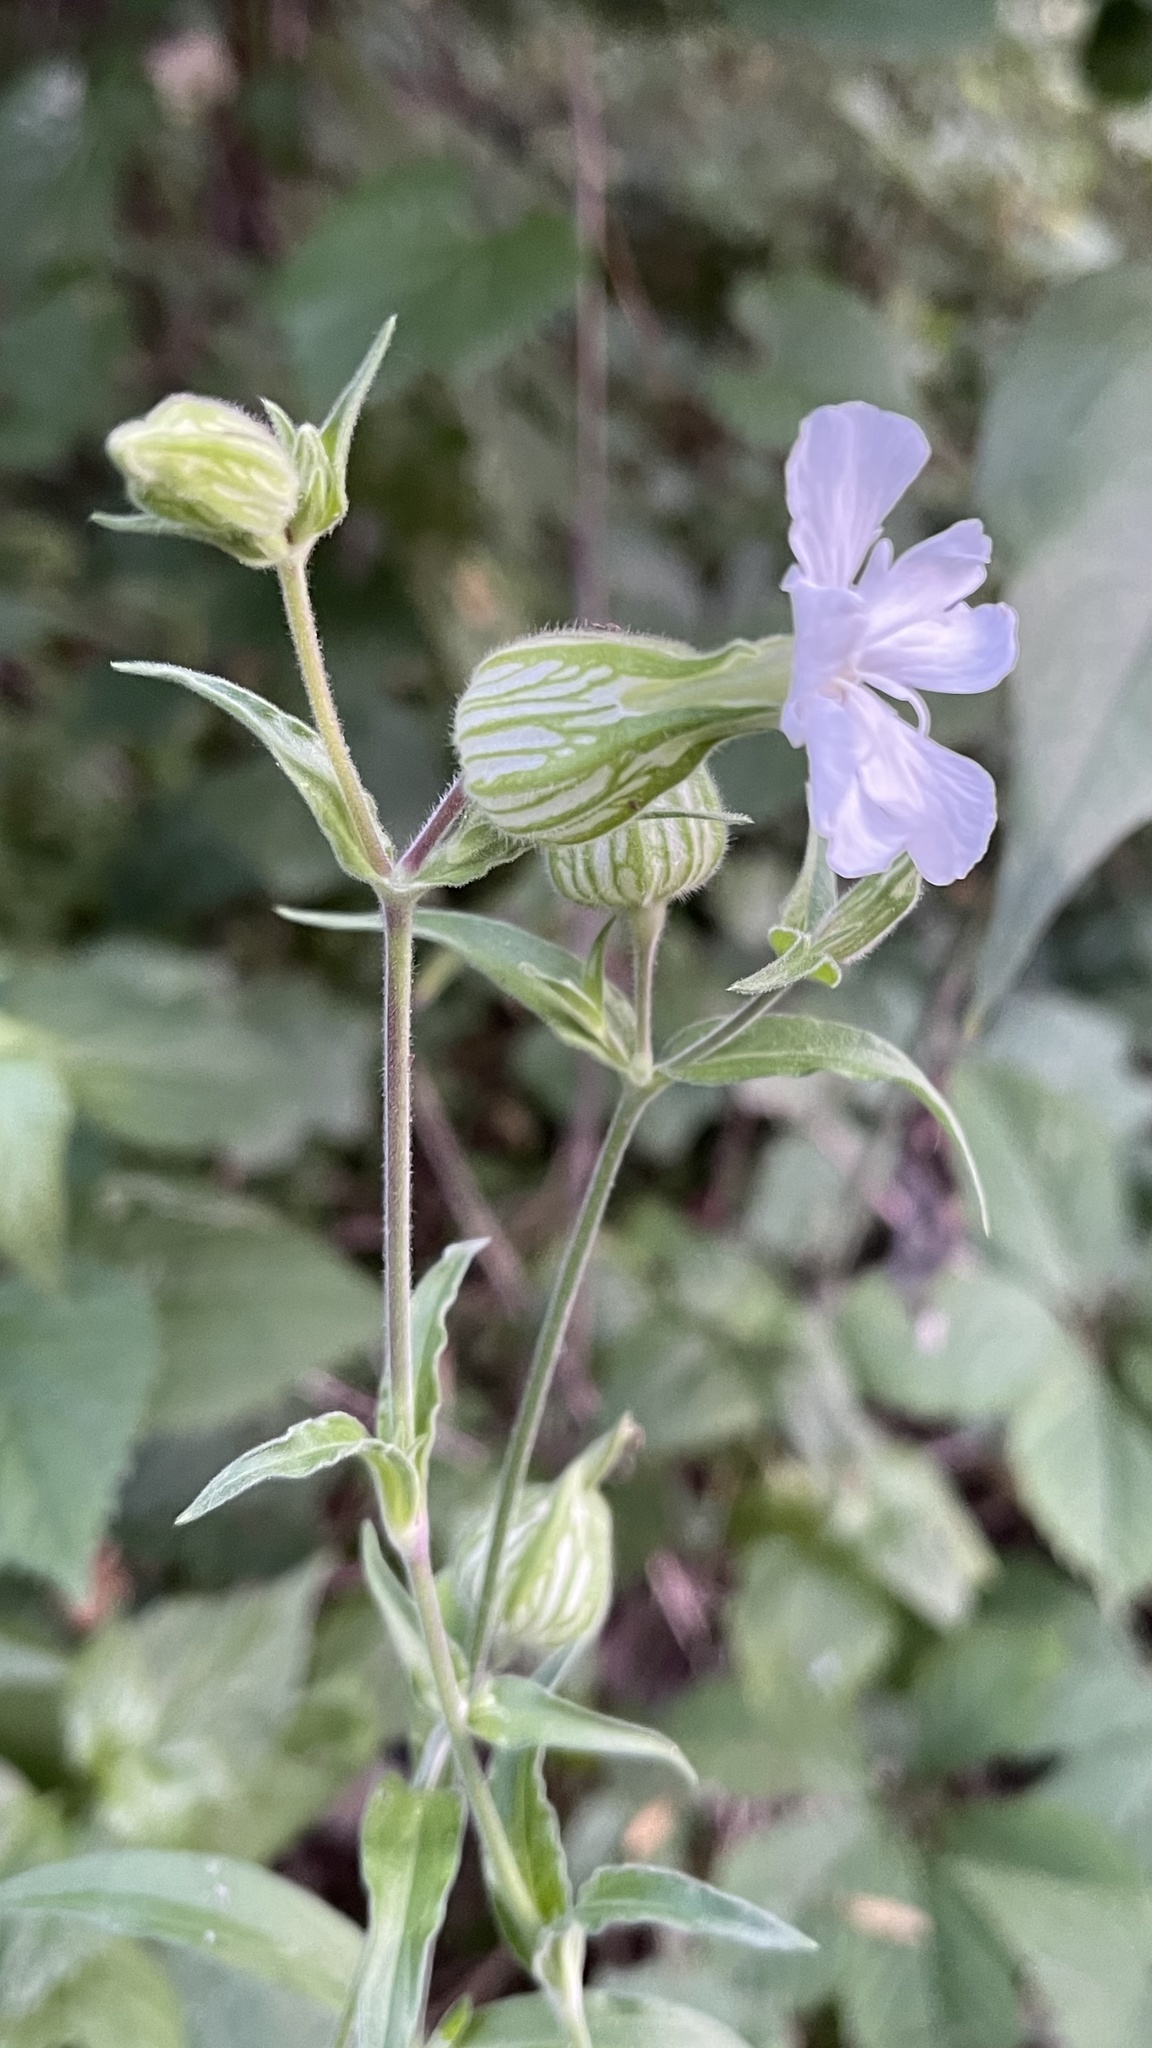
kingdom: Plantae
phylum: Tracheophyta
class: Magnoliopsida
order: Caryophyllales
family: Caryophyllaceae
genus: Silene
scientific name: Silene latifolia
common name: White campion
